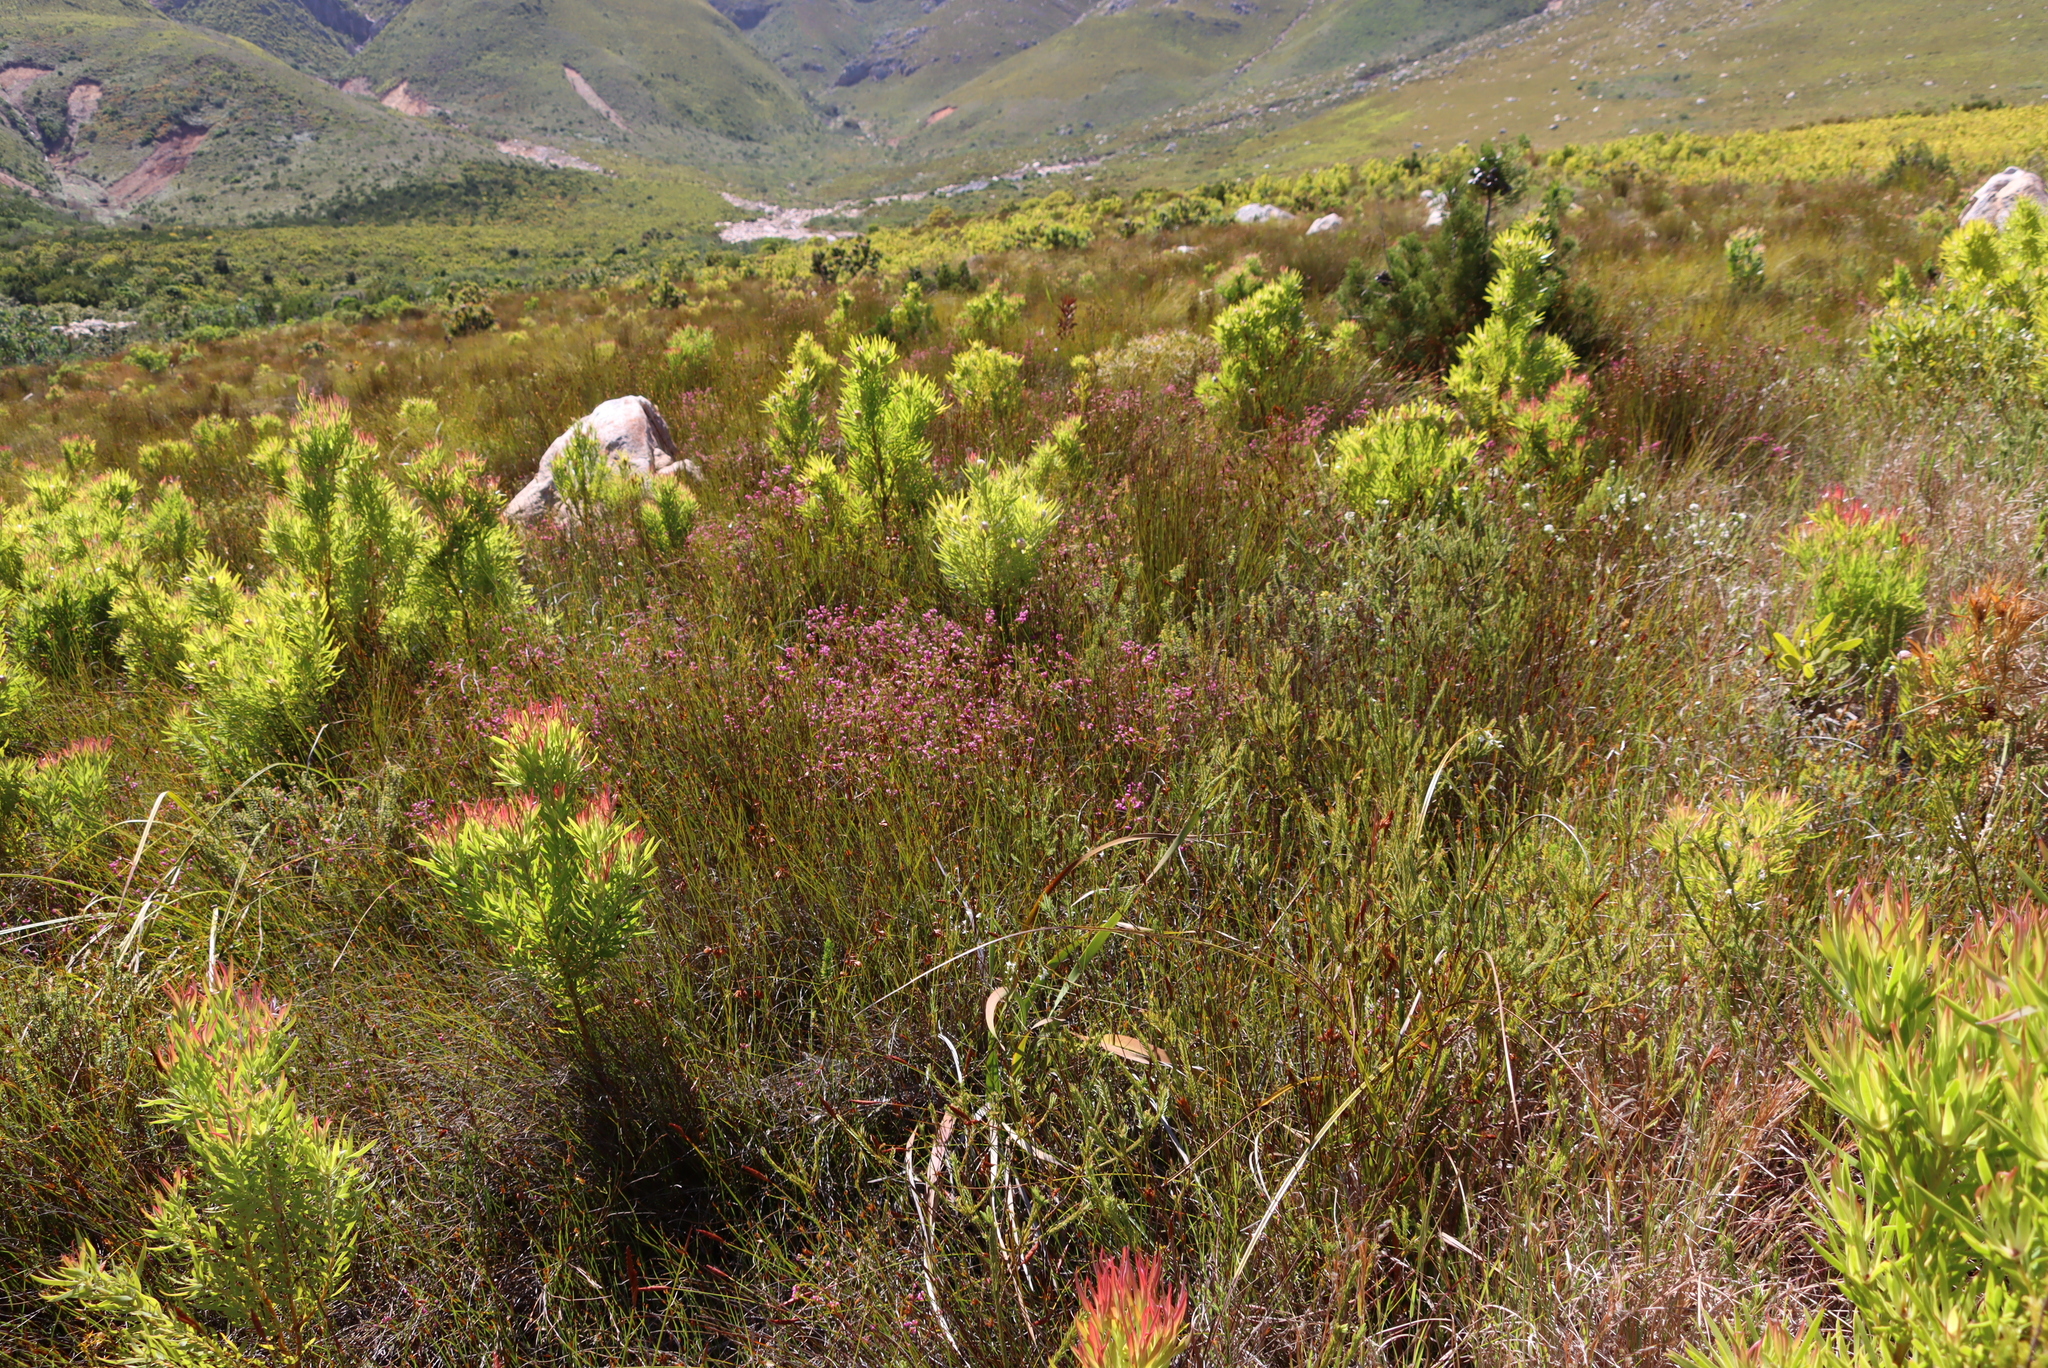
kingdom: Plantae
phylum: Tracheophyta
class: Magnoliopsida
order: Proteales
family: Proteaceae
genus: Leucadendron
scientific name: Leucadendron xanthoconus
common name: Sickle-leaf conebush
